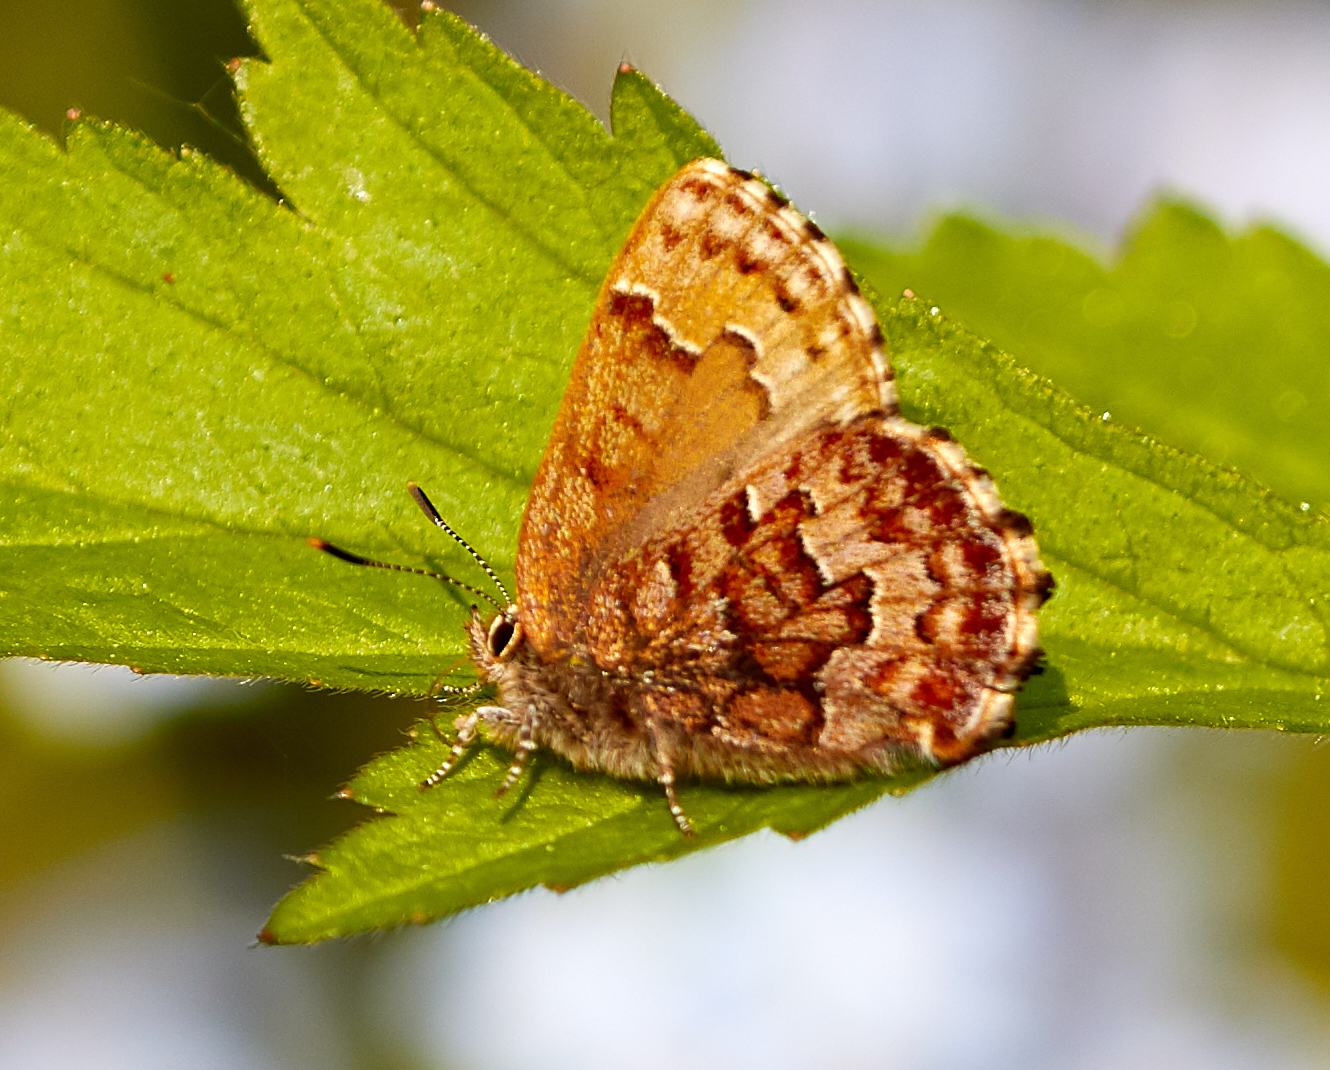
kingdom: Animalia
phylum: Arthropoda
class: Insecta
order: Lepidoptera
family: Lycaenidae
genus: Incisalia
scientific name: Incisalia niphon
